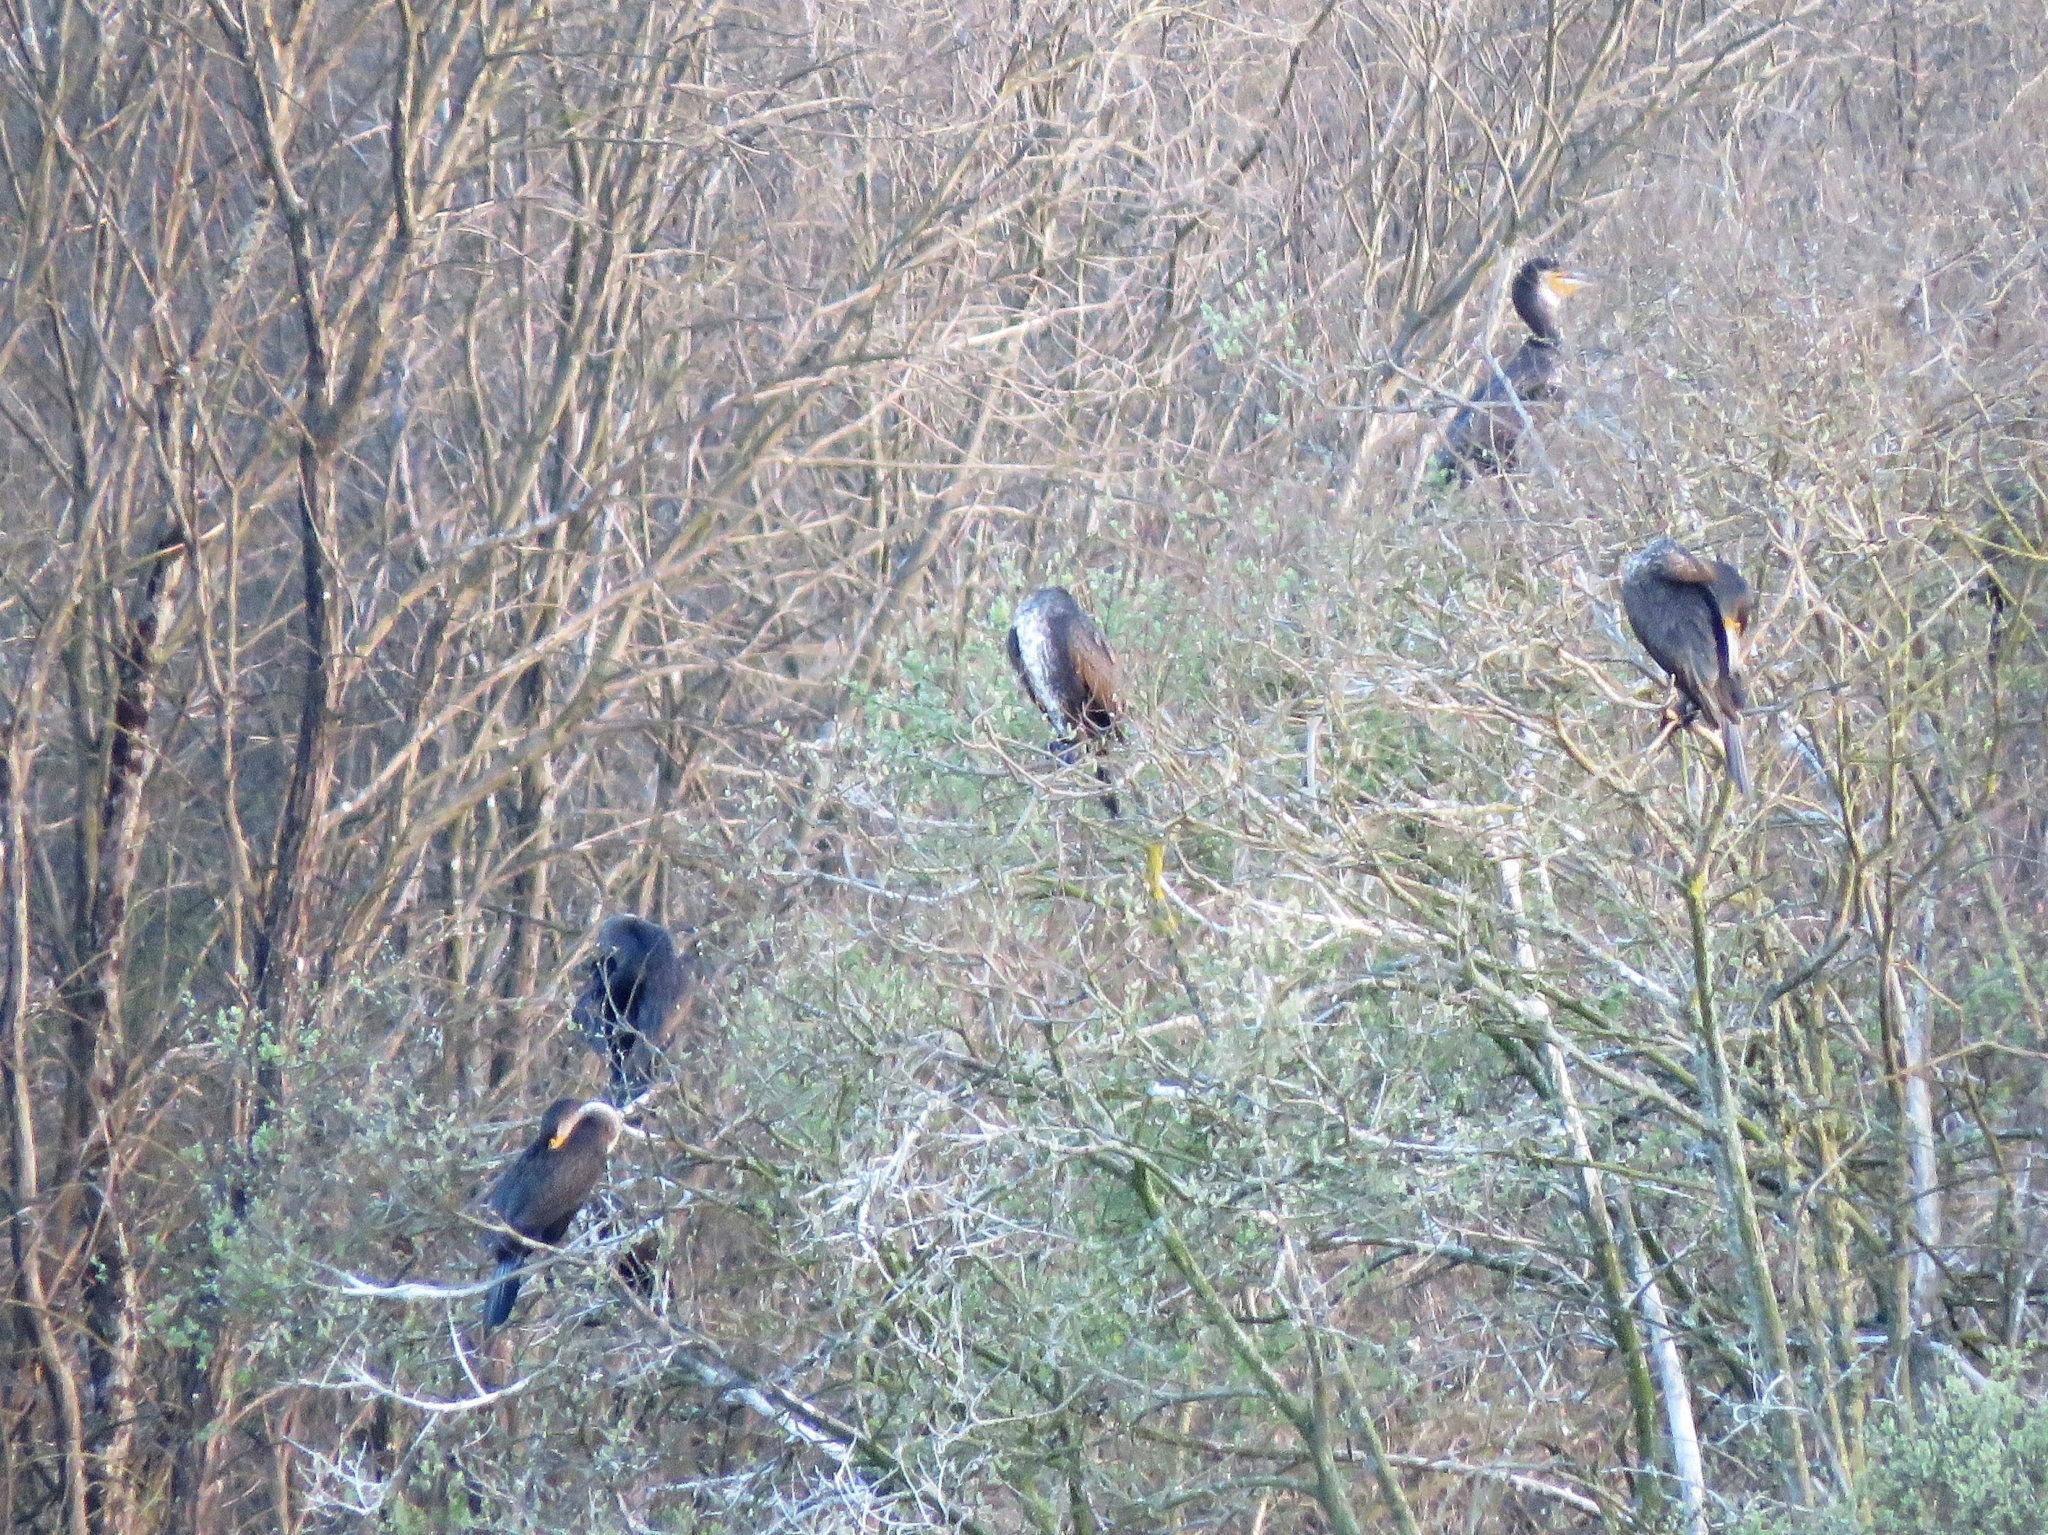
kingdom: Animalia
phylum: Chordata
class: Aves
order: Suliformes
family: Phalacrocoracidae
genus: Phalacrocorax
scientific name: Phalacrocorax carbo
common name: Great cormorant
